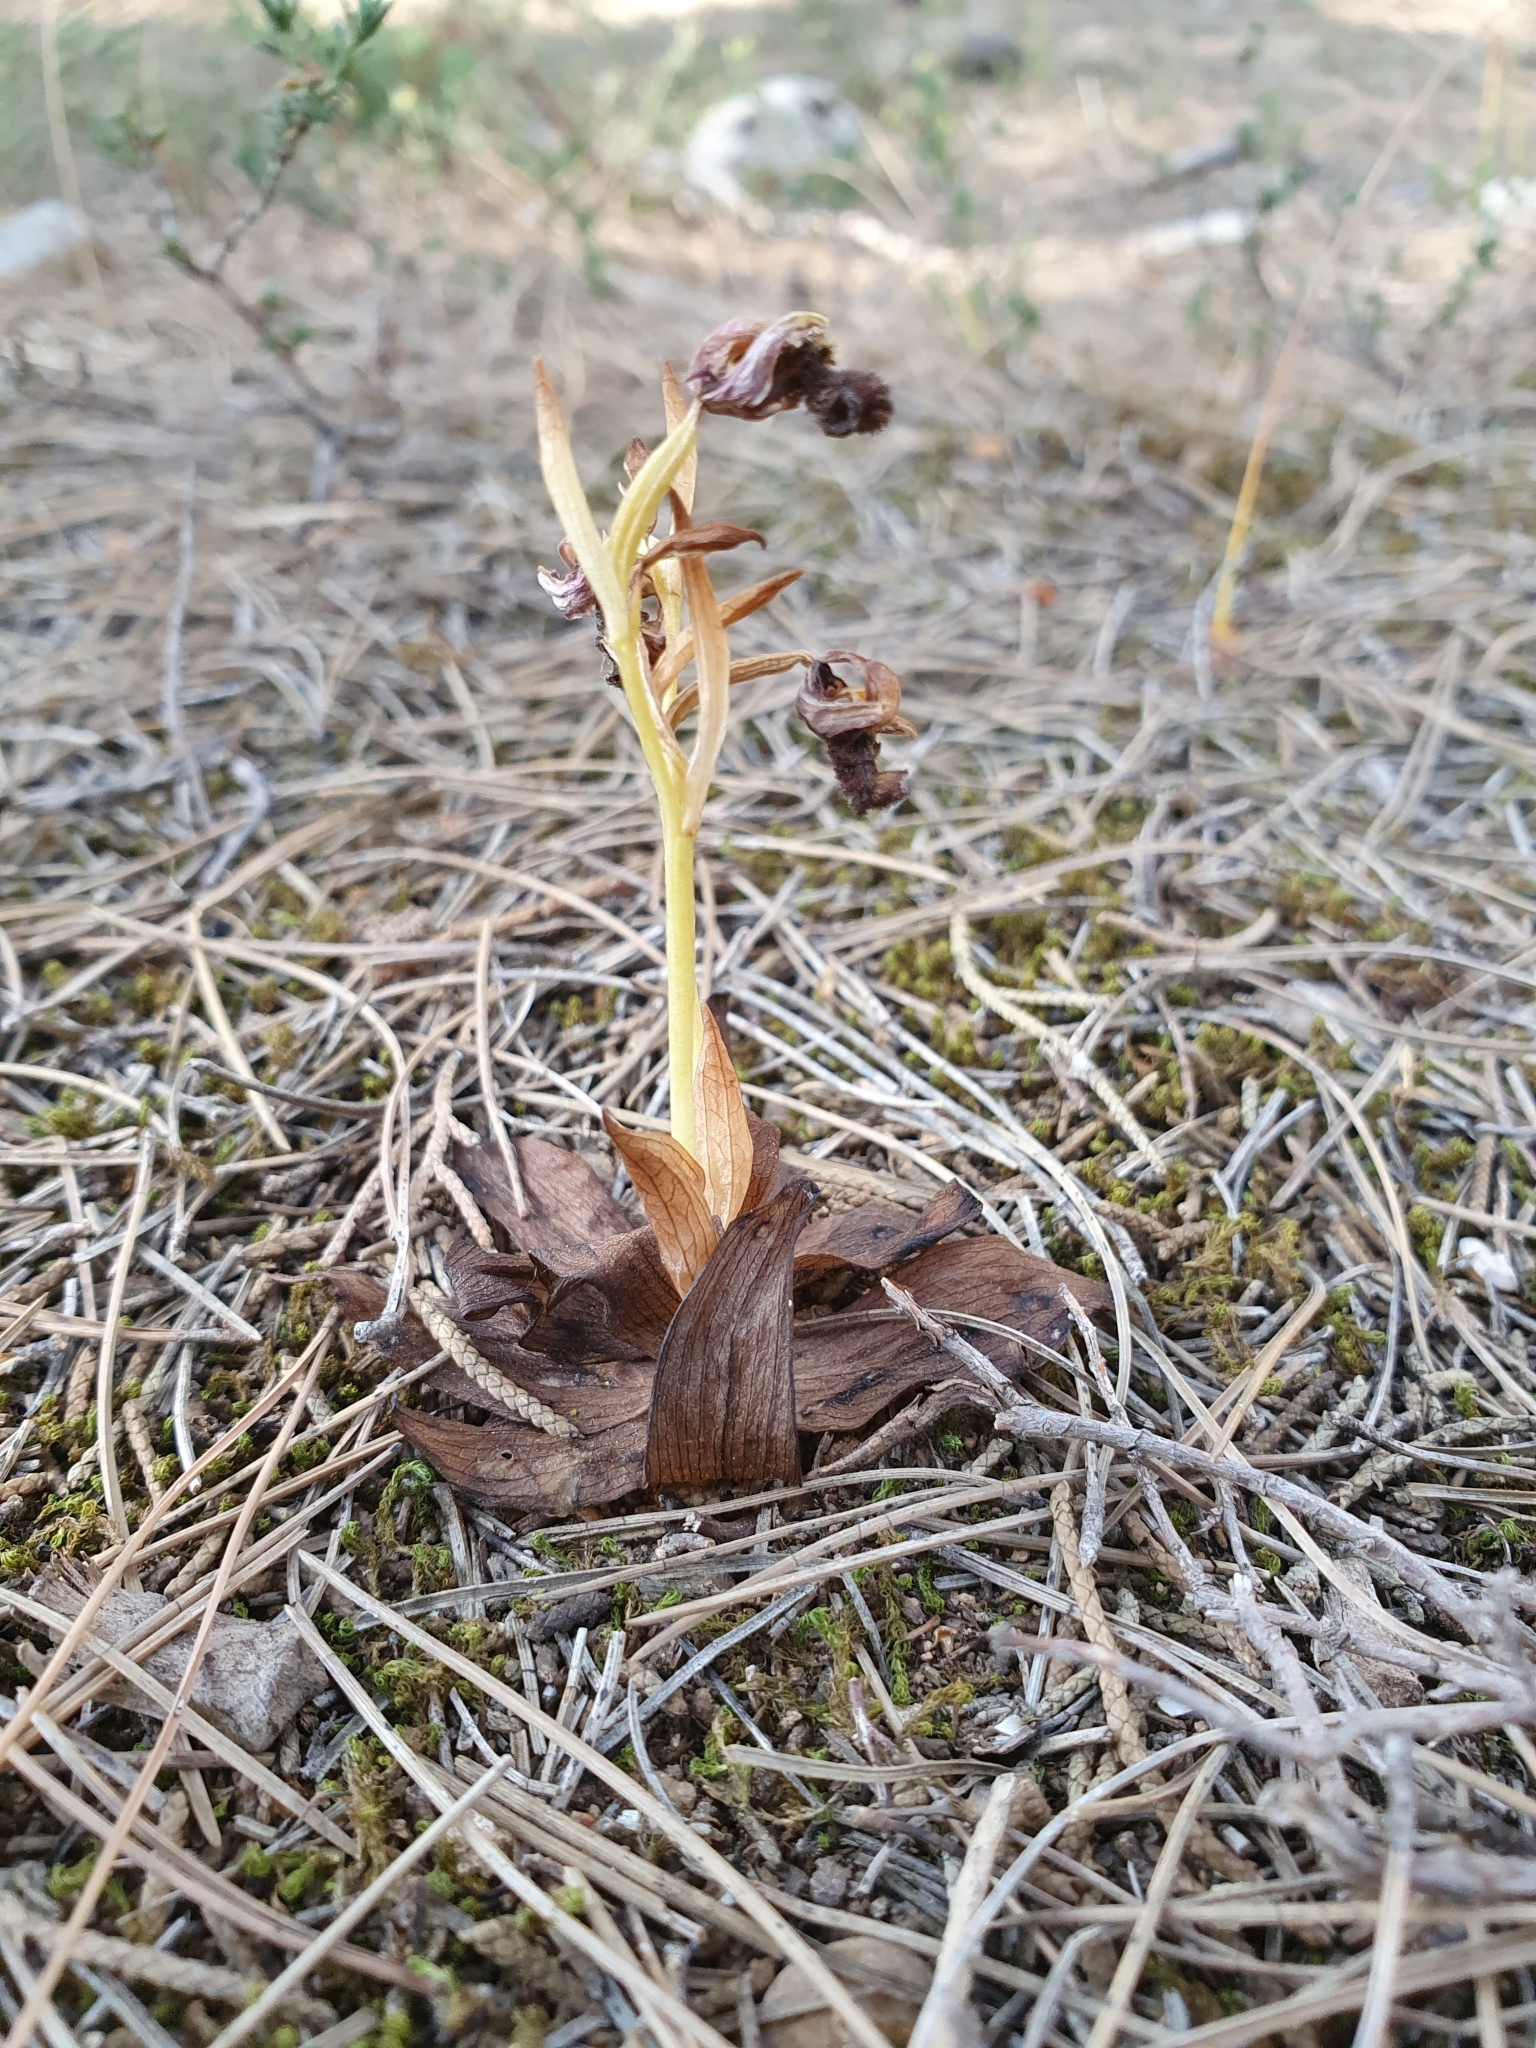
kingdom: Plantae
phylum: Tracheophyta
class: Liliopsida
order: Asparagales
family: Orchidaceae
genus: Ophrys
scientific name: Ophrys speculum
